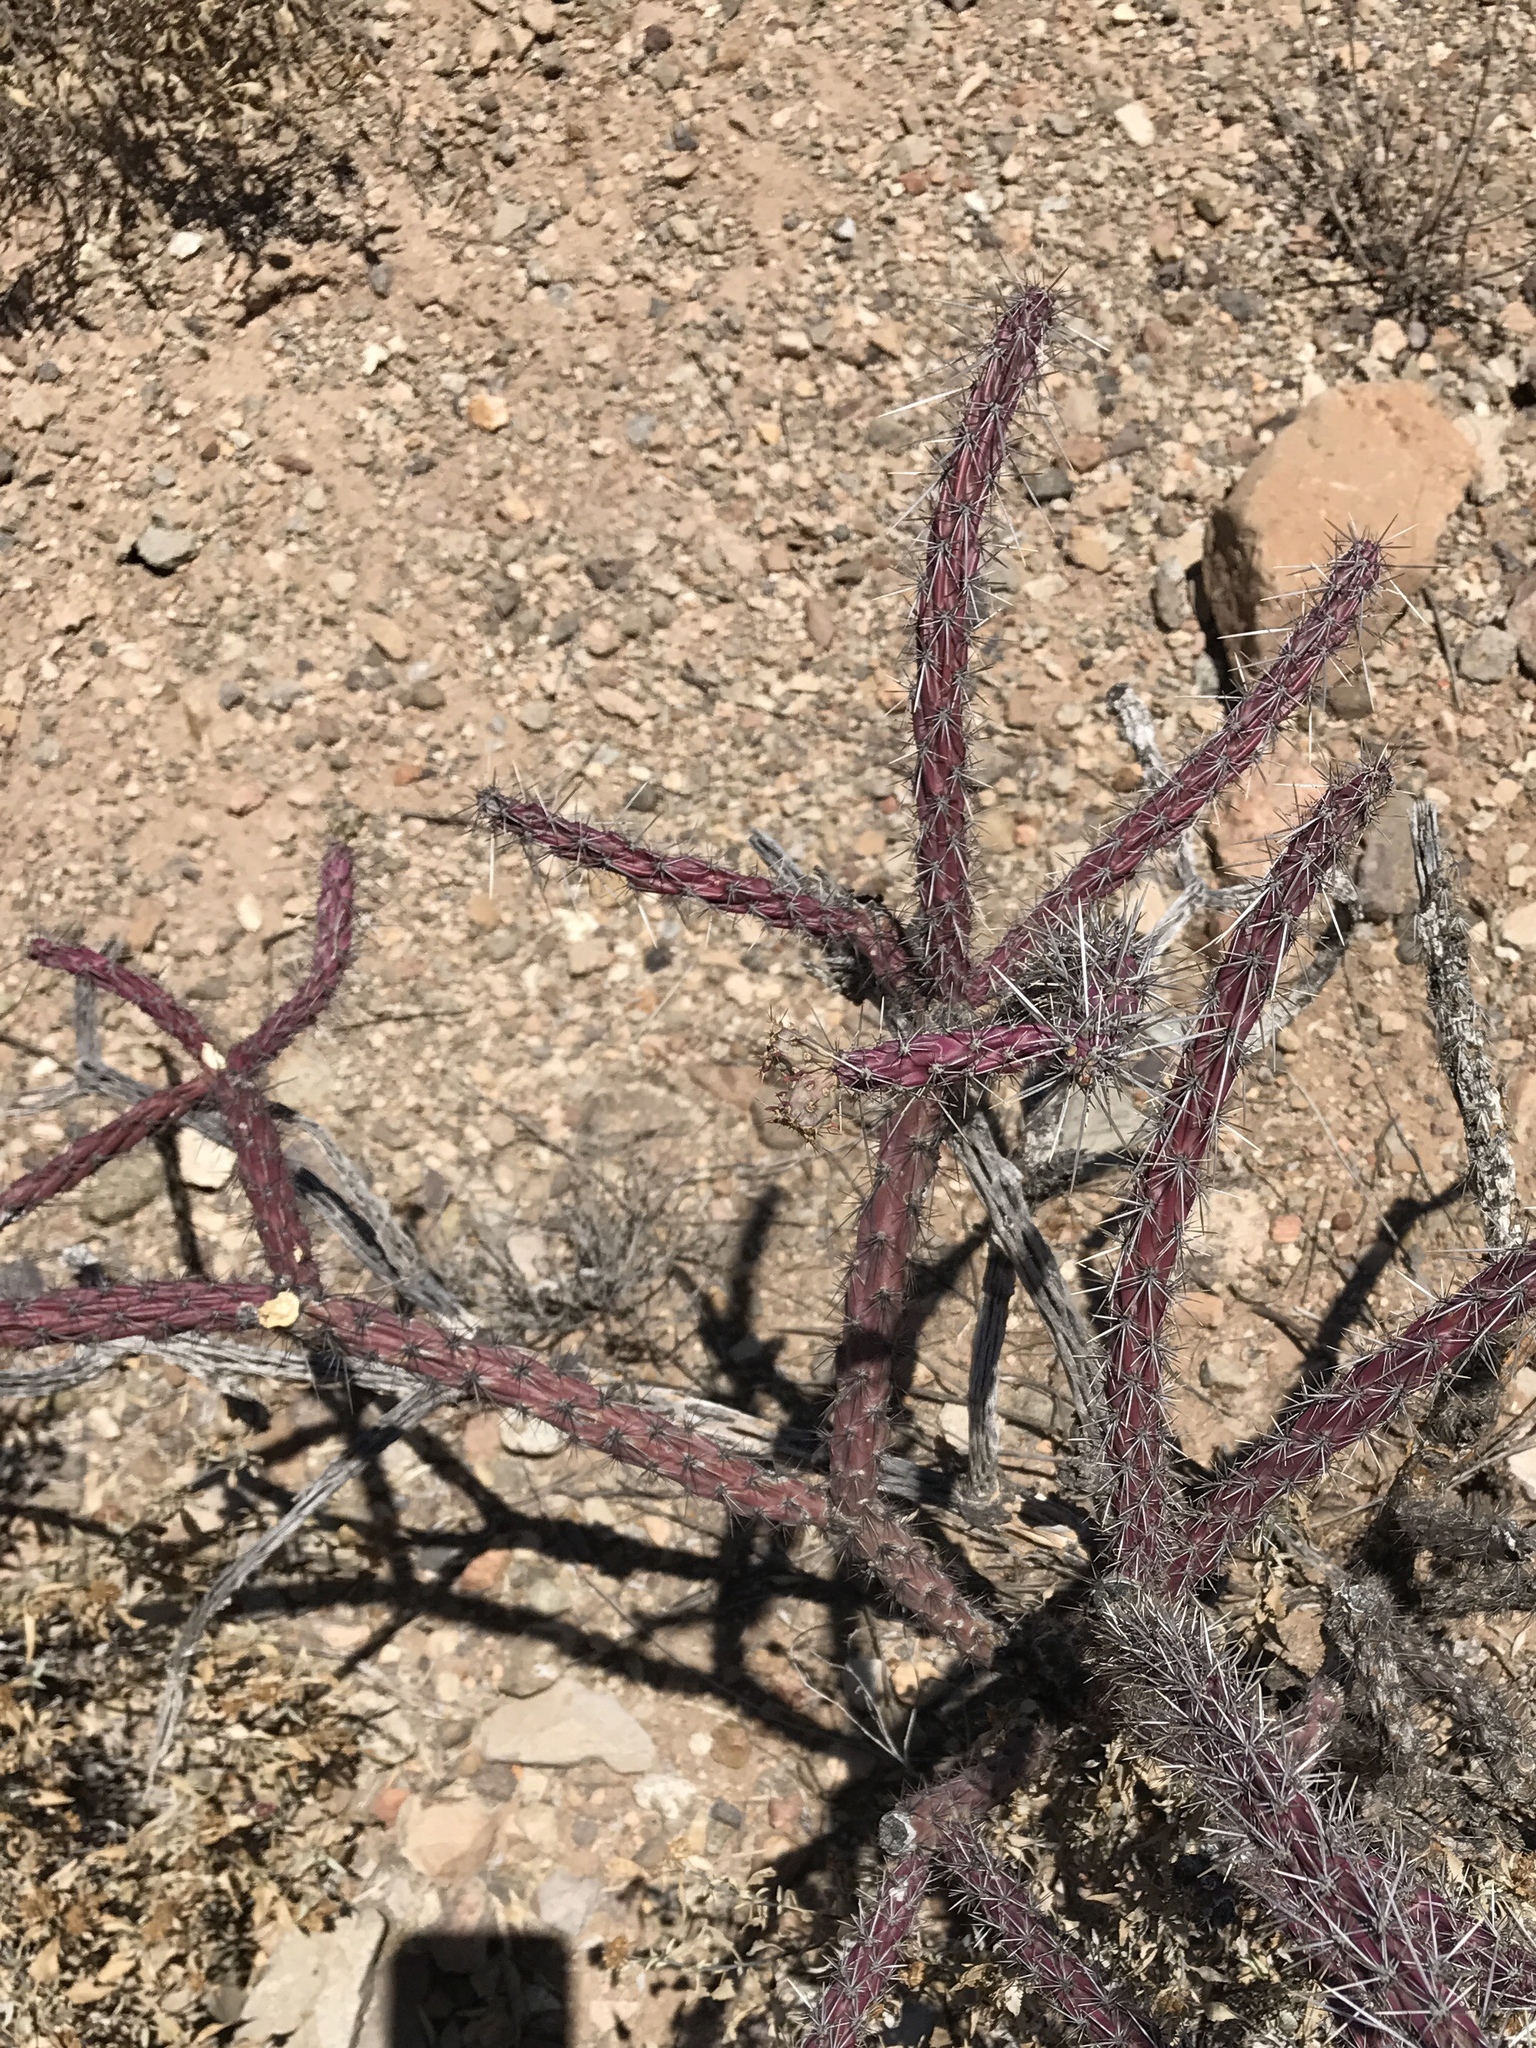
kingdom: Plantae
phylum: Tracheophyta
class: Magnoliopsida
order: Caryophyllales
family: Cactaceae
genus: Cylindropuntia
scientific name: Cylindropuntia thurberi
